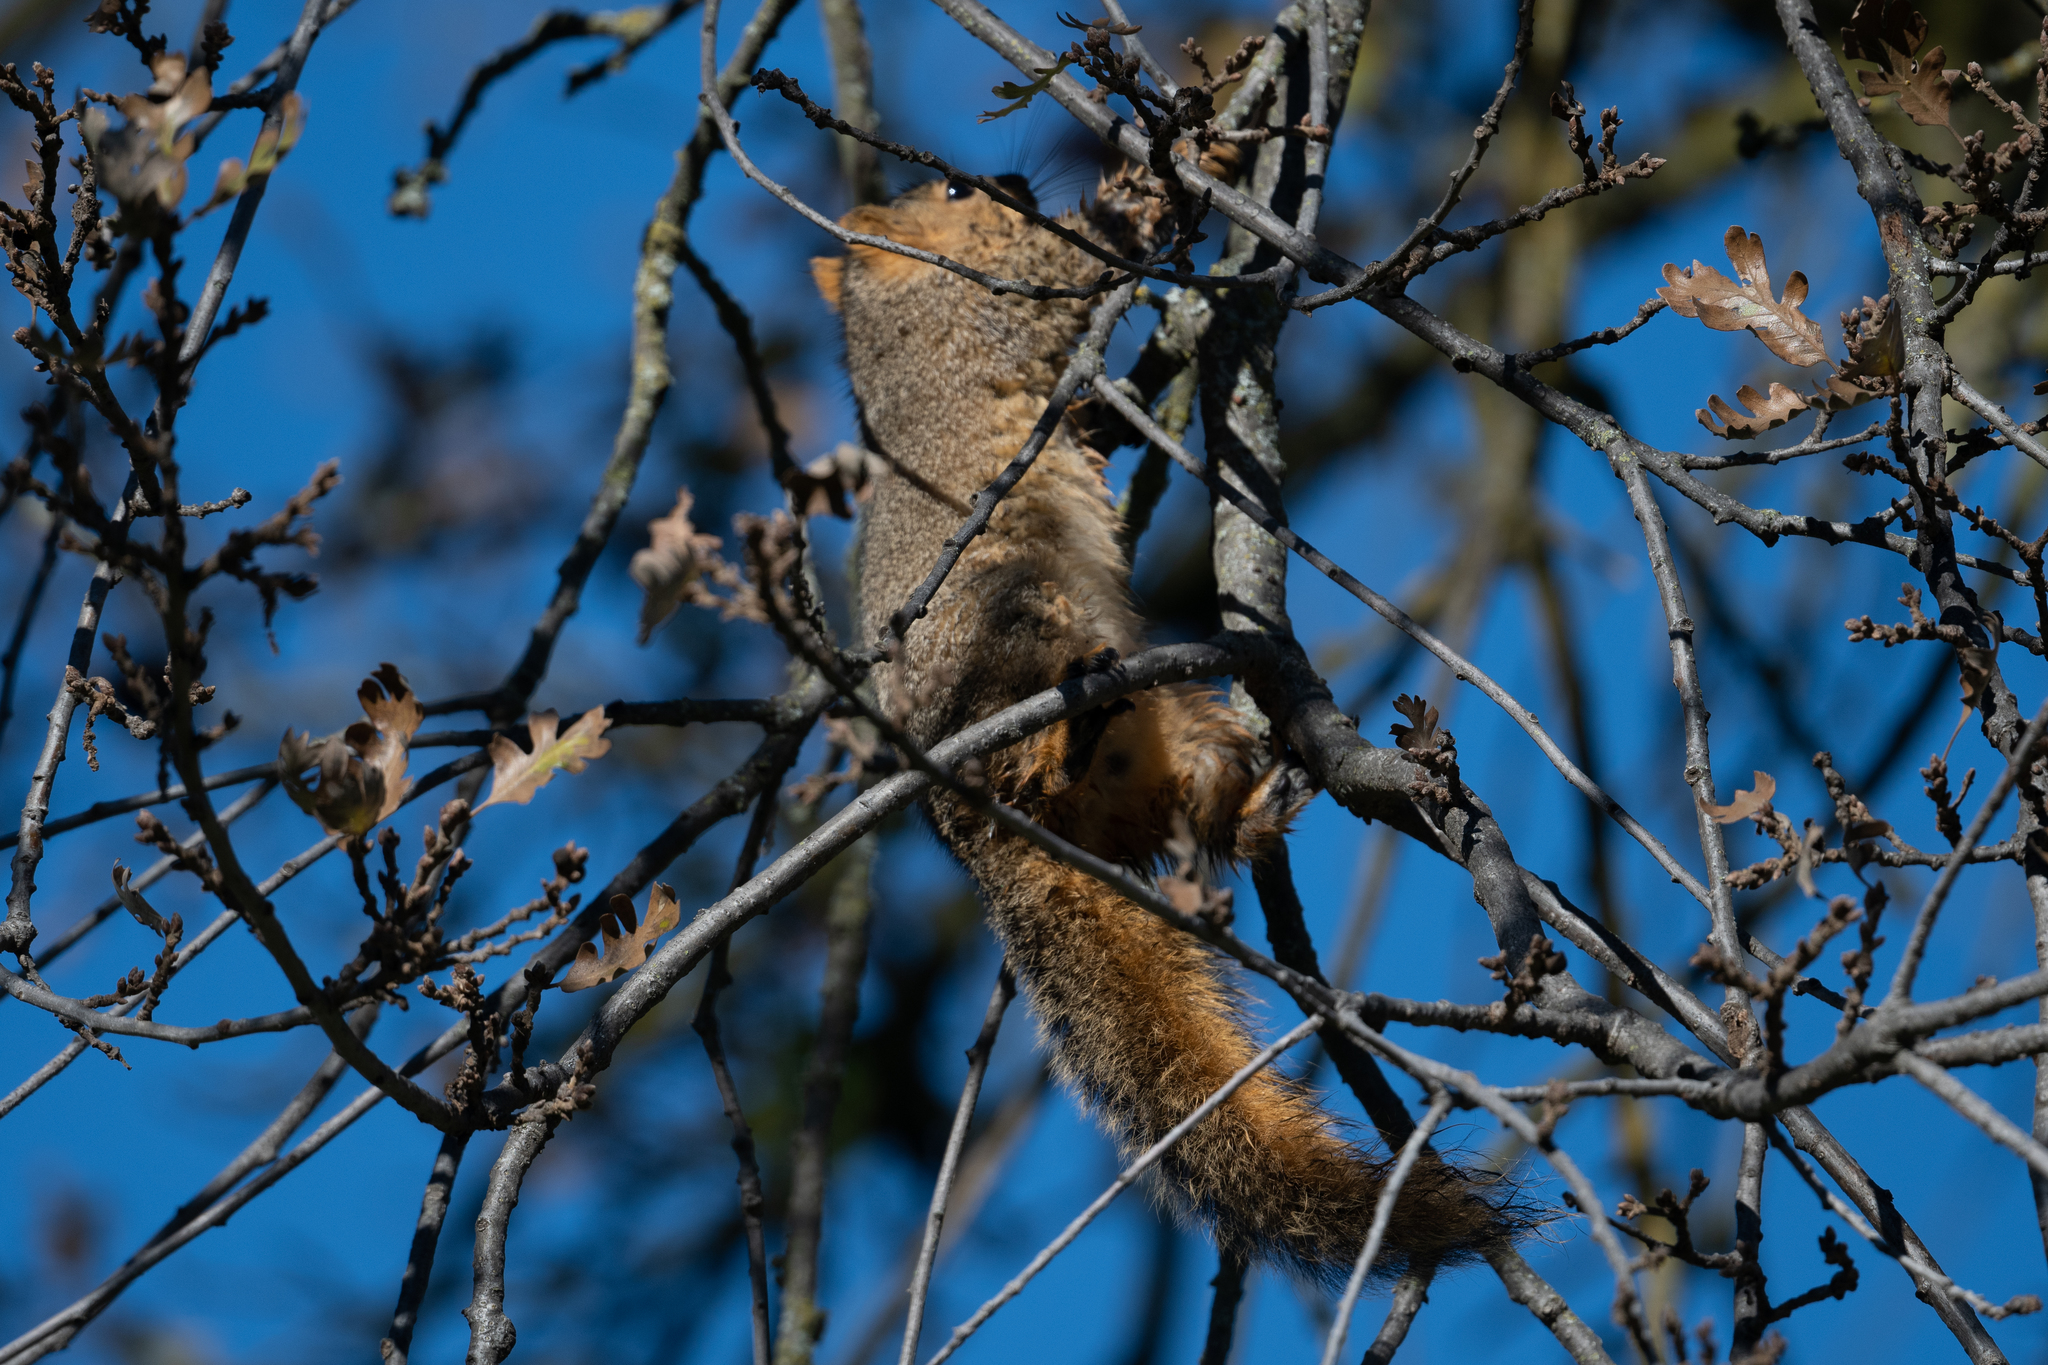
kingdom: Animalia
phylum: Chordata
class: Mammalia
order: Rodentia
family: Sciuridae
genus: Sciurus
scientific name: Sciurus niger
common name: Fox squirrel
